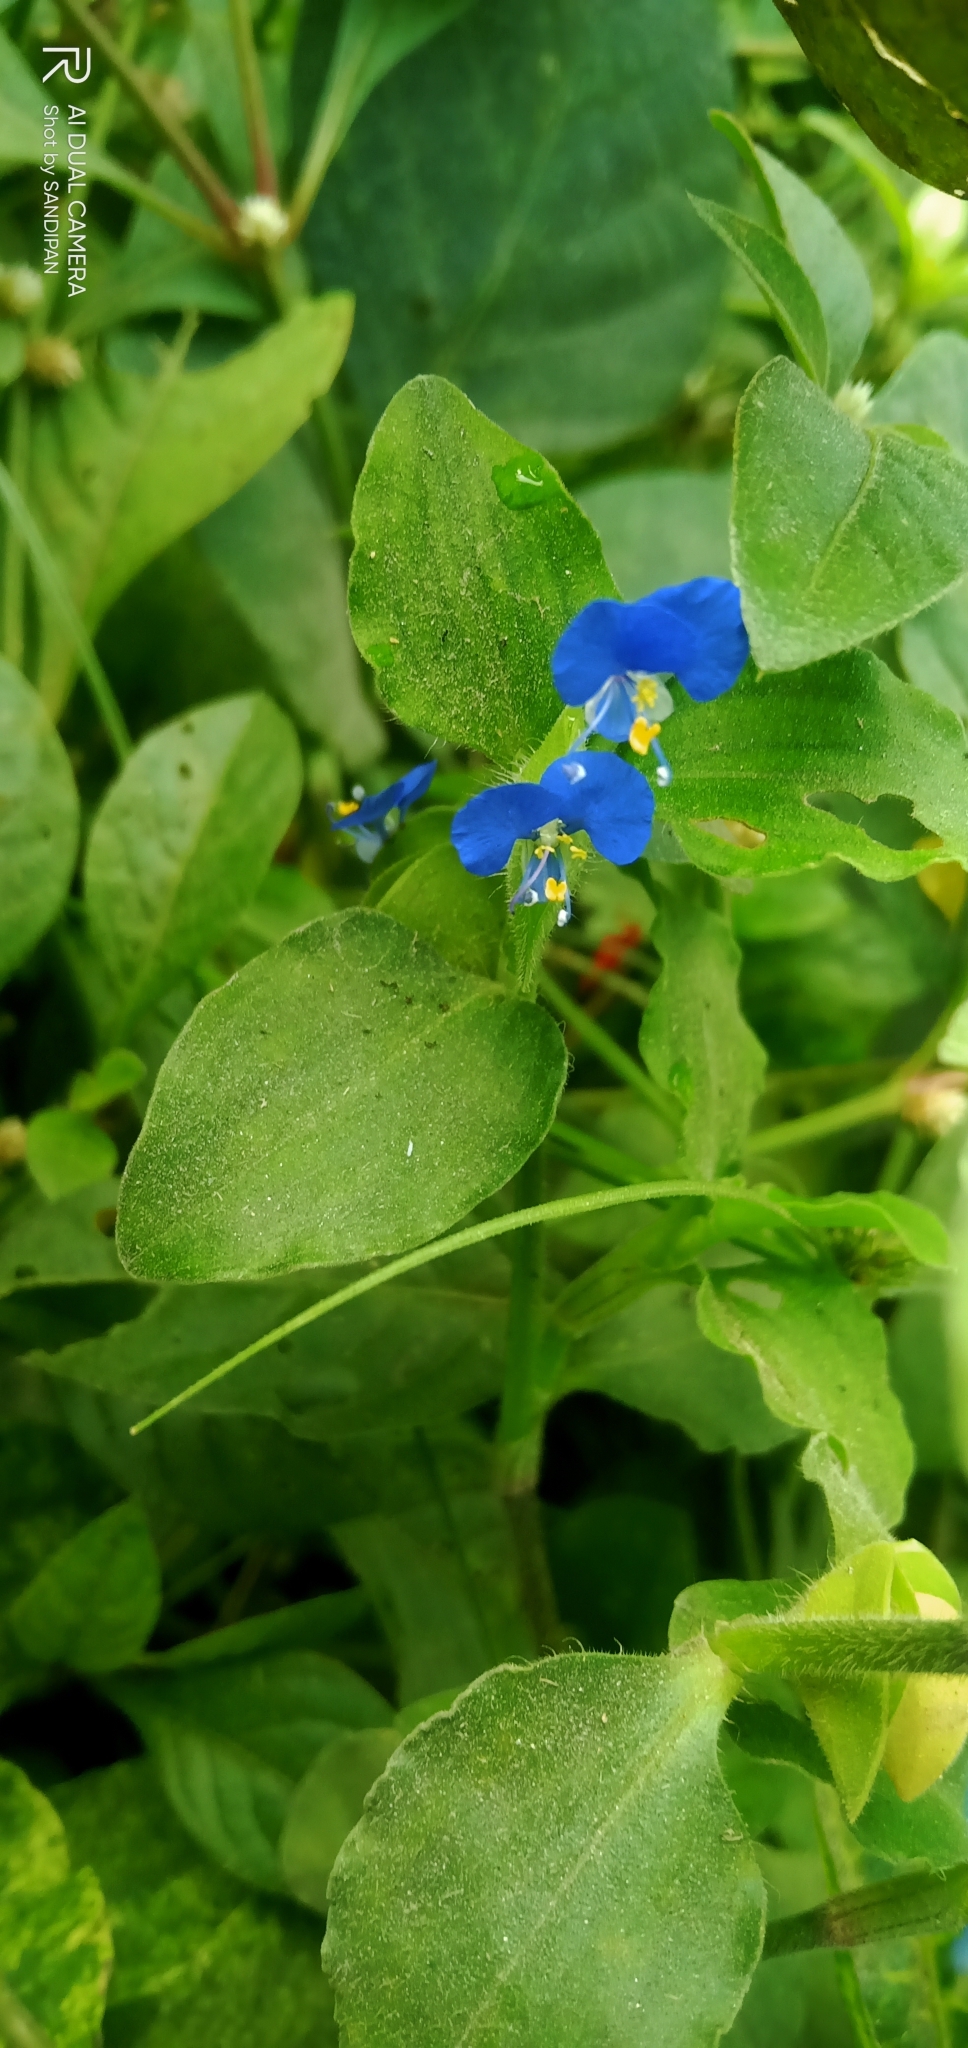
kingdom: Plantae
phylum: Tracheophyta
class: Liliopsida
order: Commelinales
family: Commelinaceae
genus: Commelina
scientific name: Commelina benghalensis
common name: Jio
